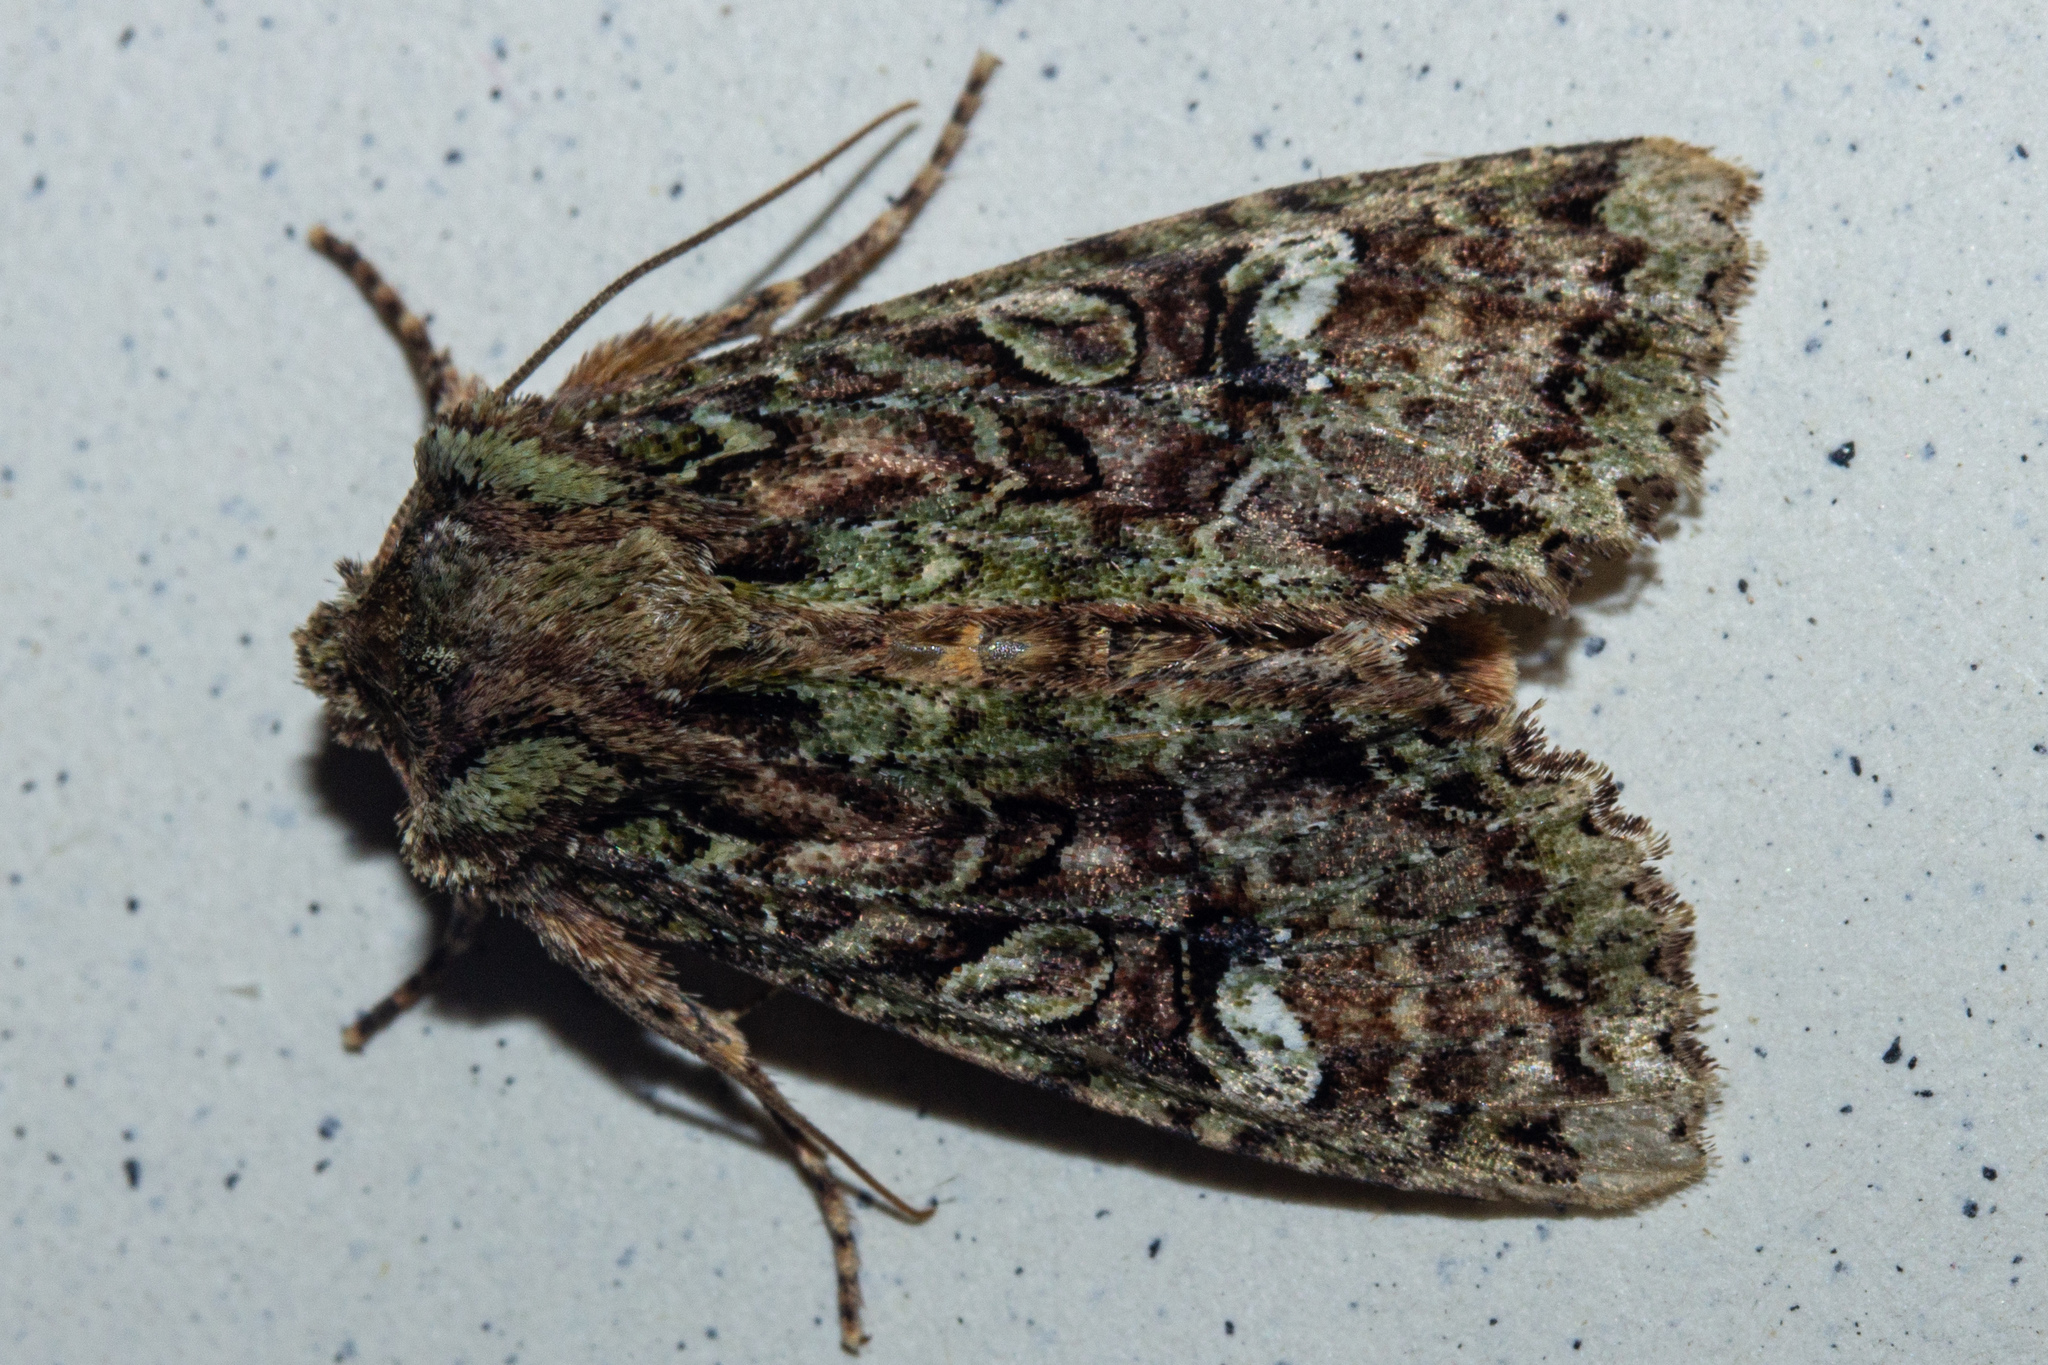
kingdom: Animalia
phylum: Arthropoda
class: Insecta
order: Lepidoptera
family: Noctuidae
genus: Meterana
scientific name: Meterana
